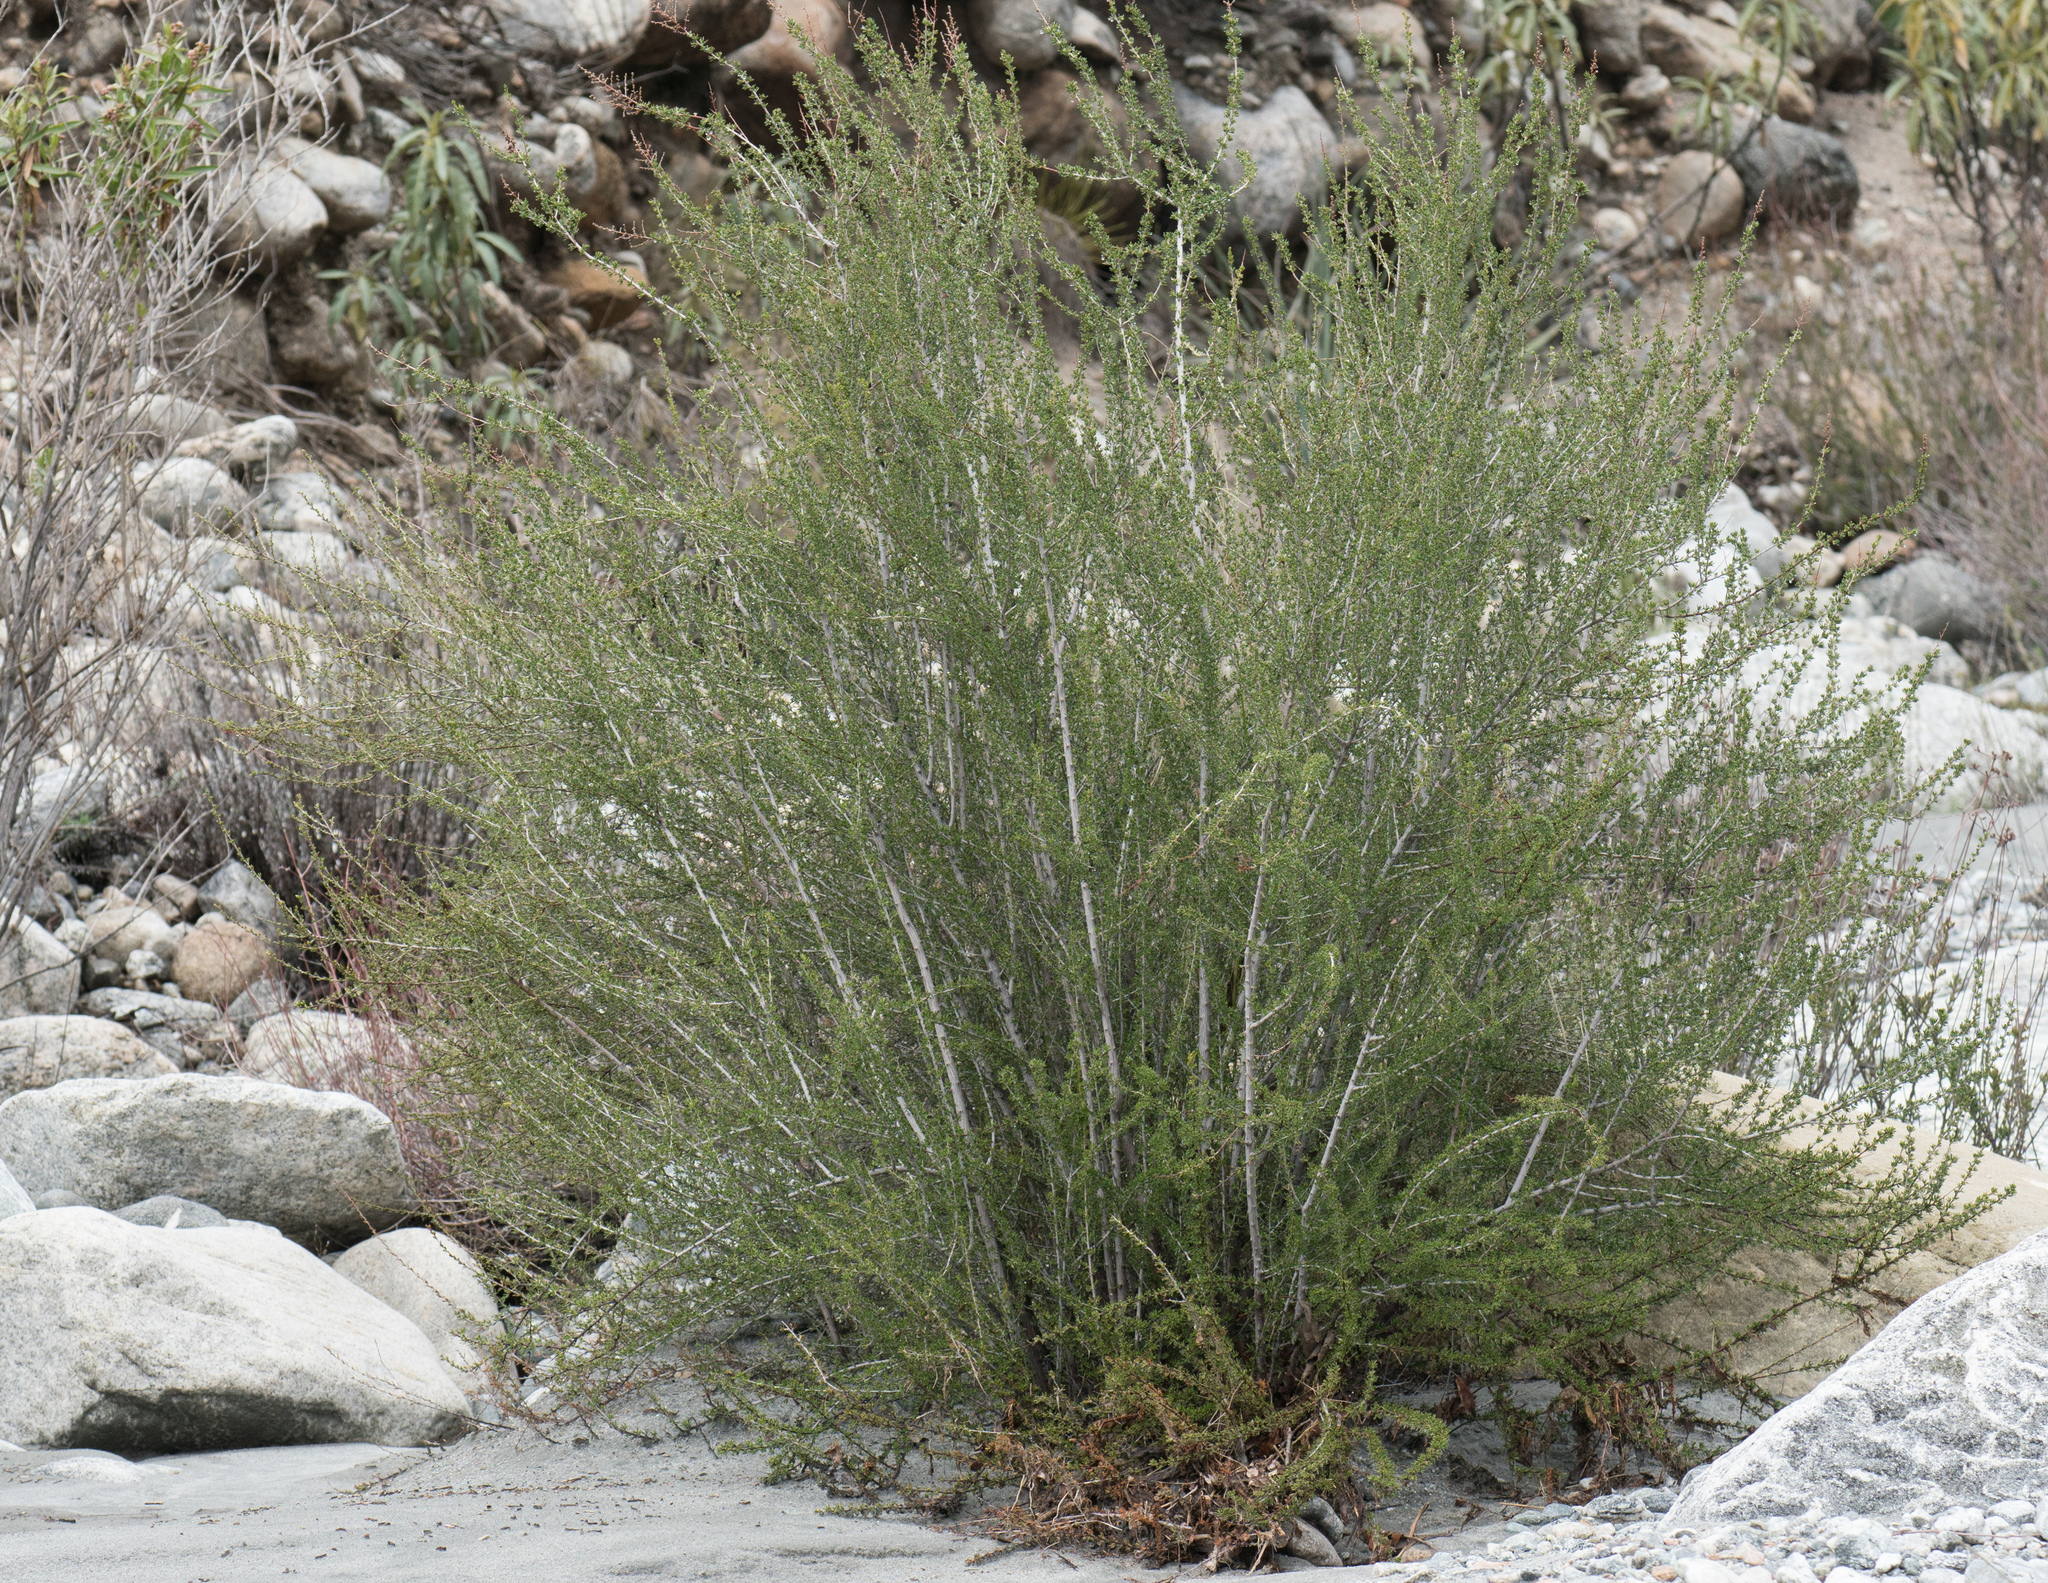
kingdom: Plantae
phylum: Tracheophyta
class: Magnoliopsida
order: Rosales
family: Rosaceae
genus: Adenostoma
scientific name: Adenostoma fasciculatum
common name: Chamise
